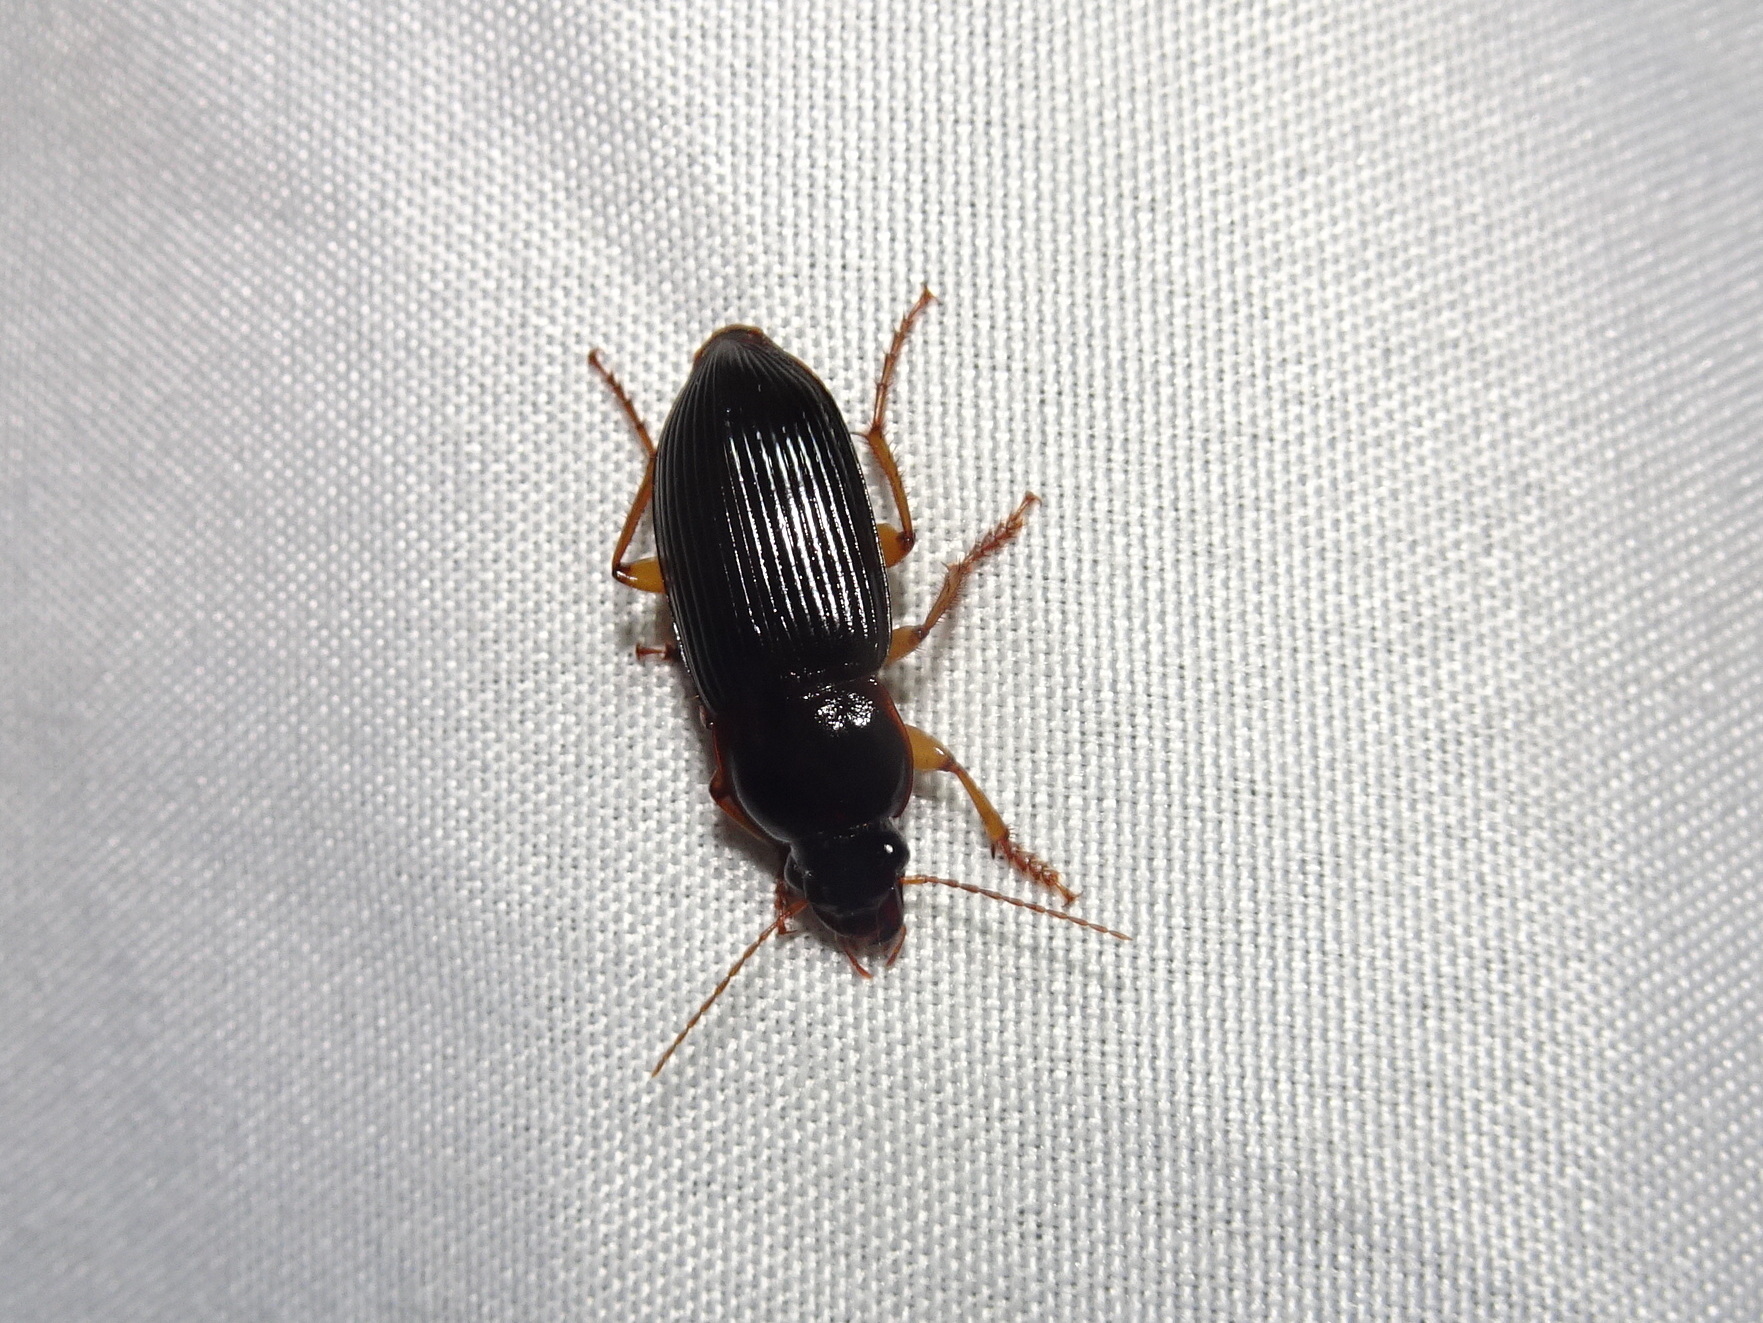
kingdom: Animalia
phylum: Arthropoda
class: Insecta
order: Coleoptera
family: Carabidae
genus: Harpalus
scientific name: Harpalus pensylvanicus
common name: Pennsylvania dingy ground beetle
